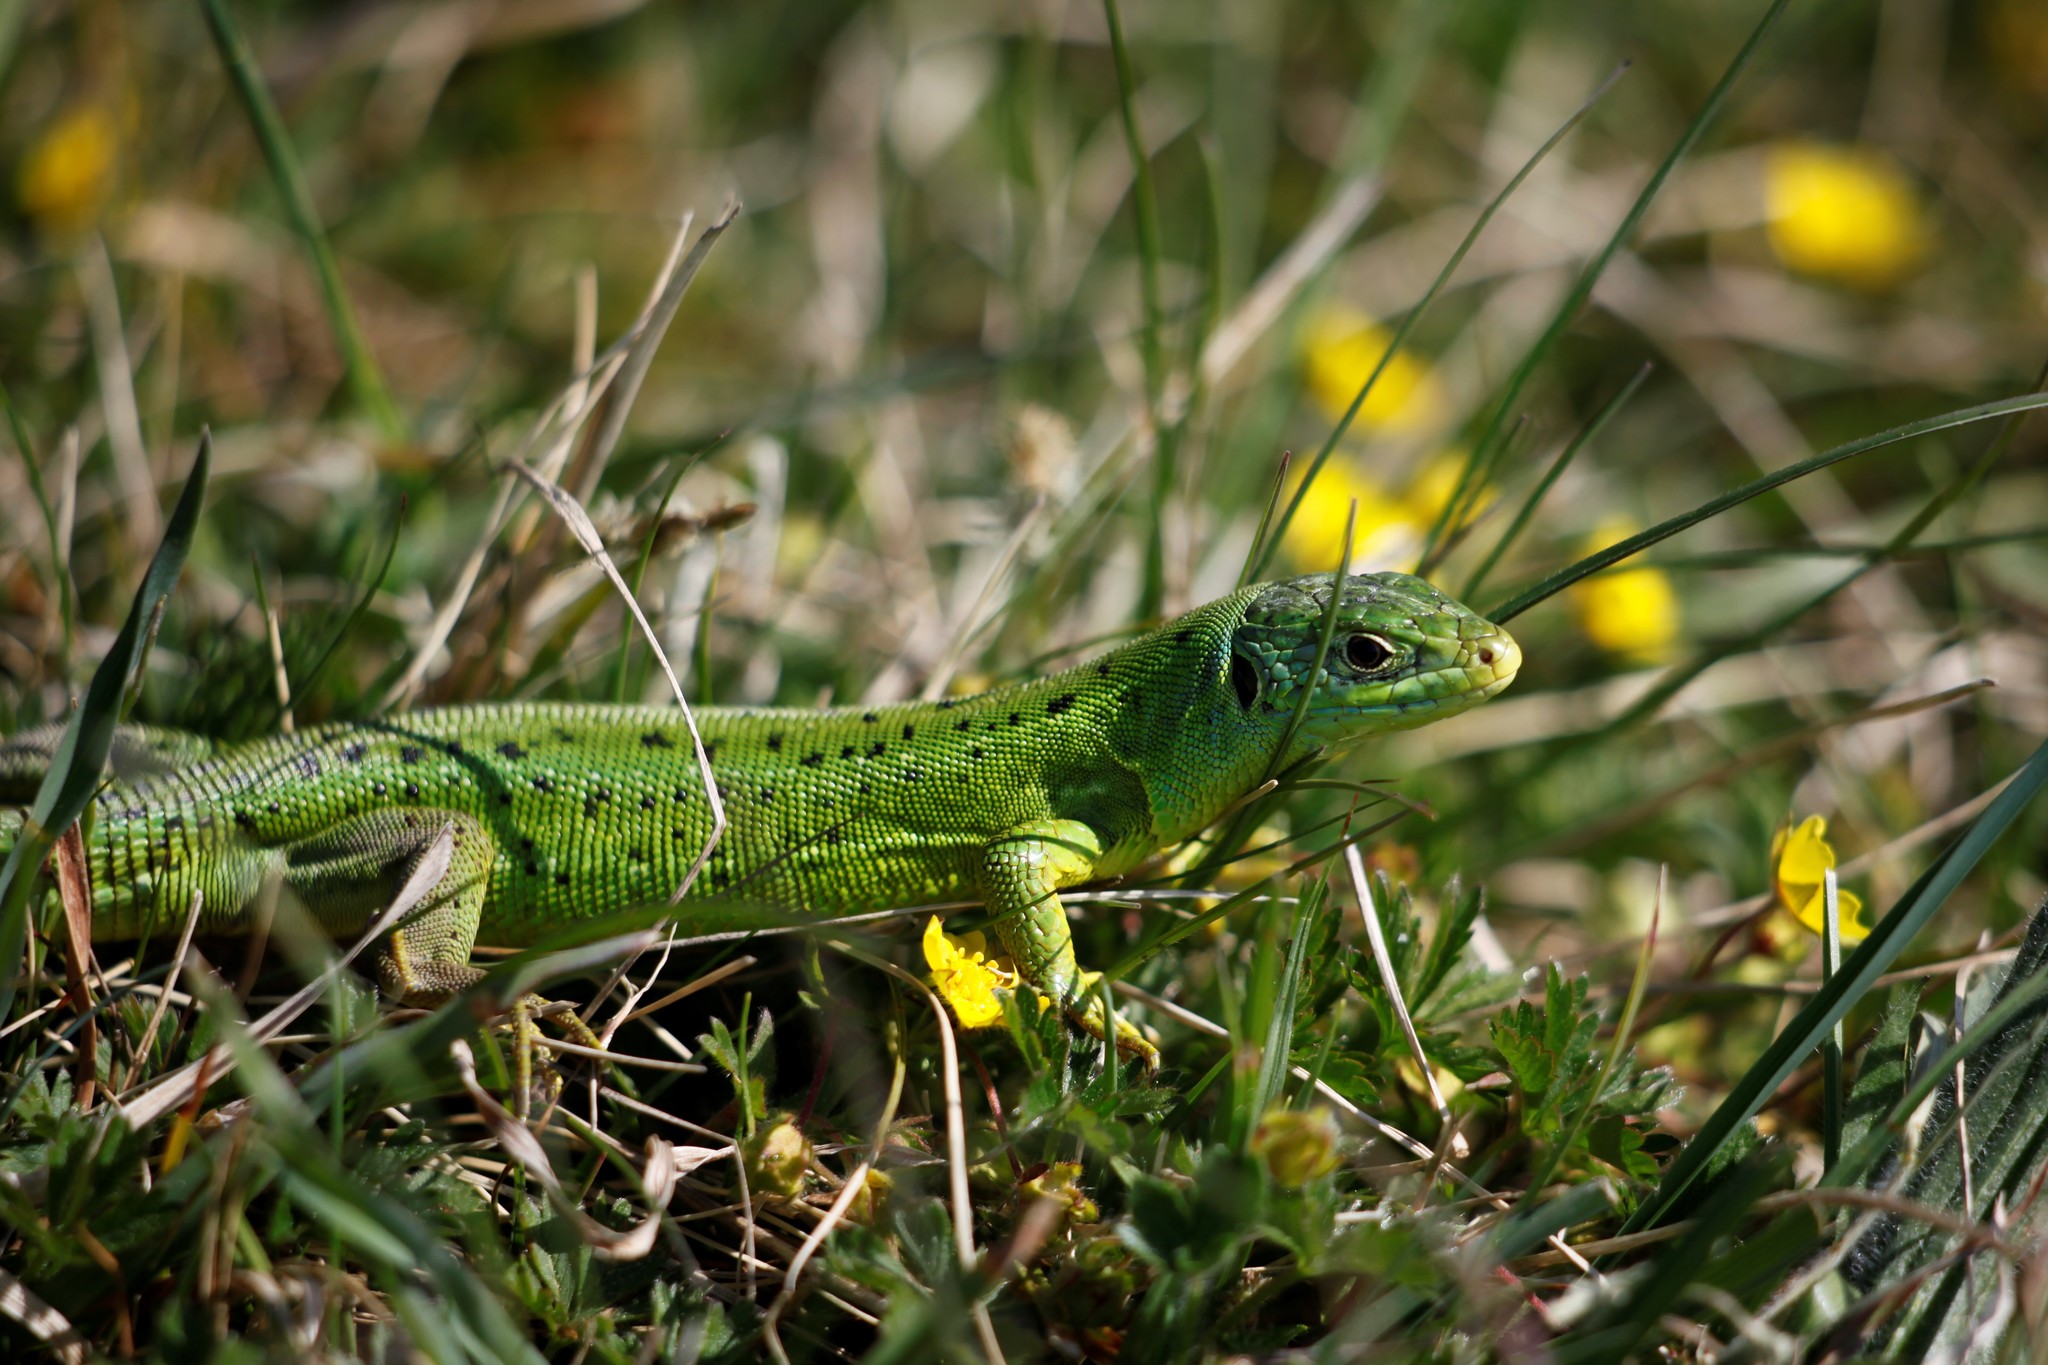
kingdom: Animalia
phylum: Chordata
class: Squamata
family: Lacertidae
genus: Lacerta
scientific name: Lacerta bilineata
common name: Western green lizard
